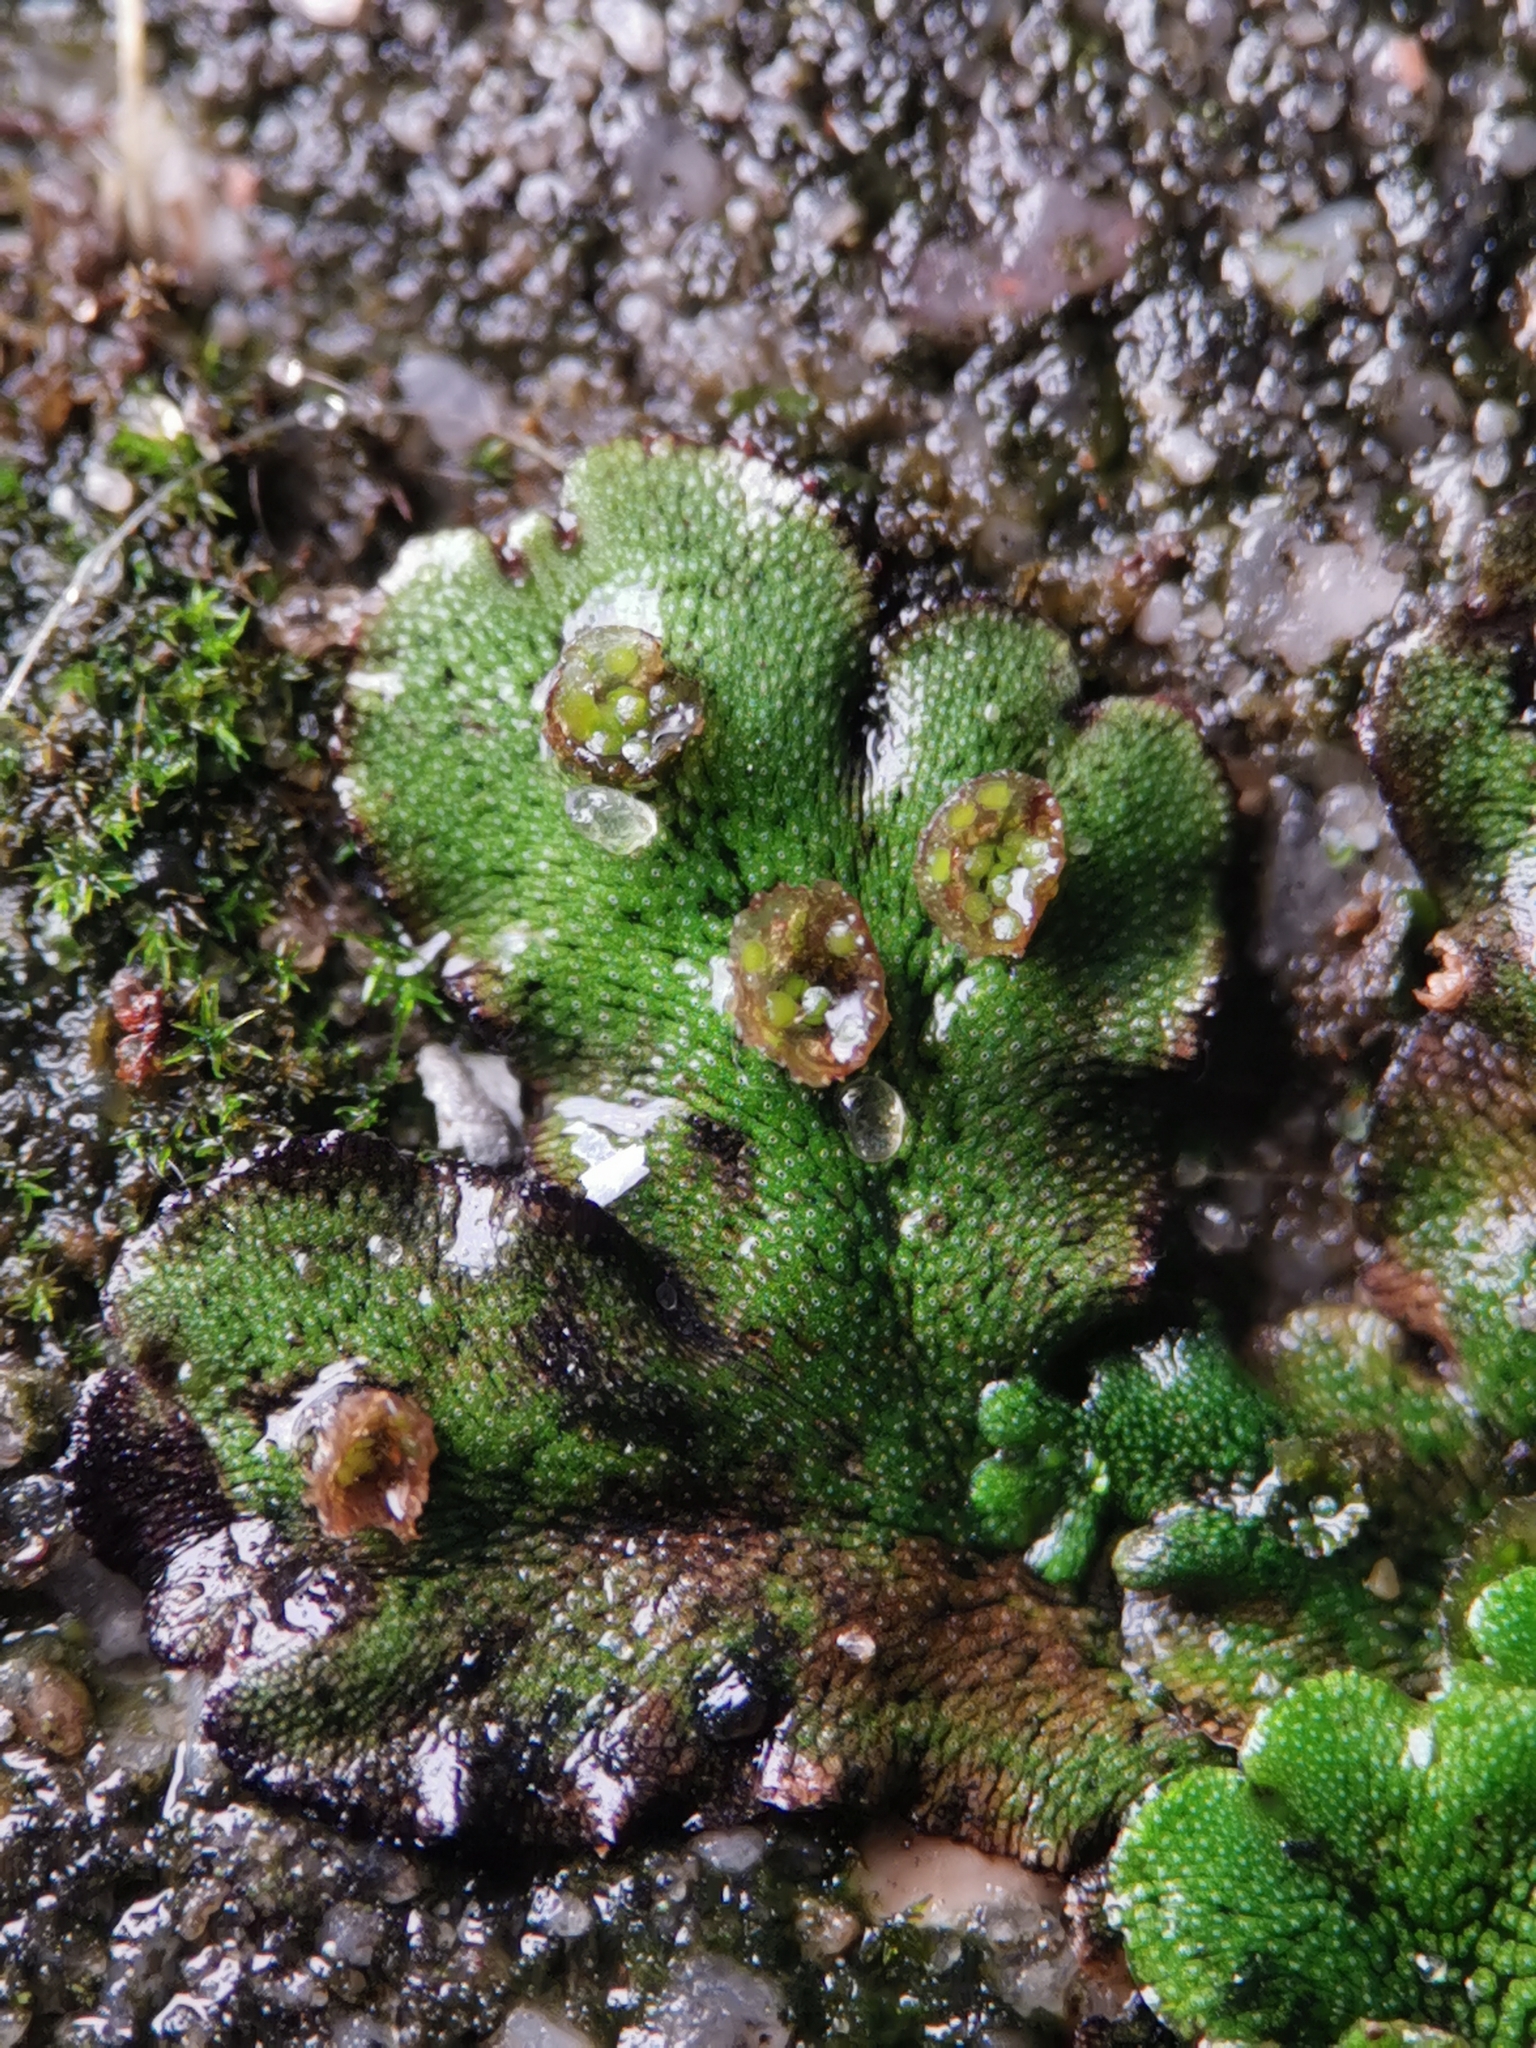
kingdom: Plantae
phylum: Marchantiophyta
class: Marchantiopsida
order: Marchantiales
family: Marchantiaceae
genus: Marchantia
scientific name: Marchantia polymorpha
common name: Common liverwort
